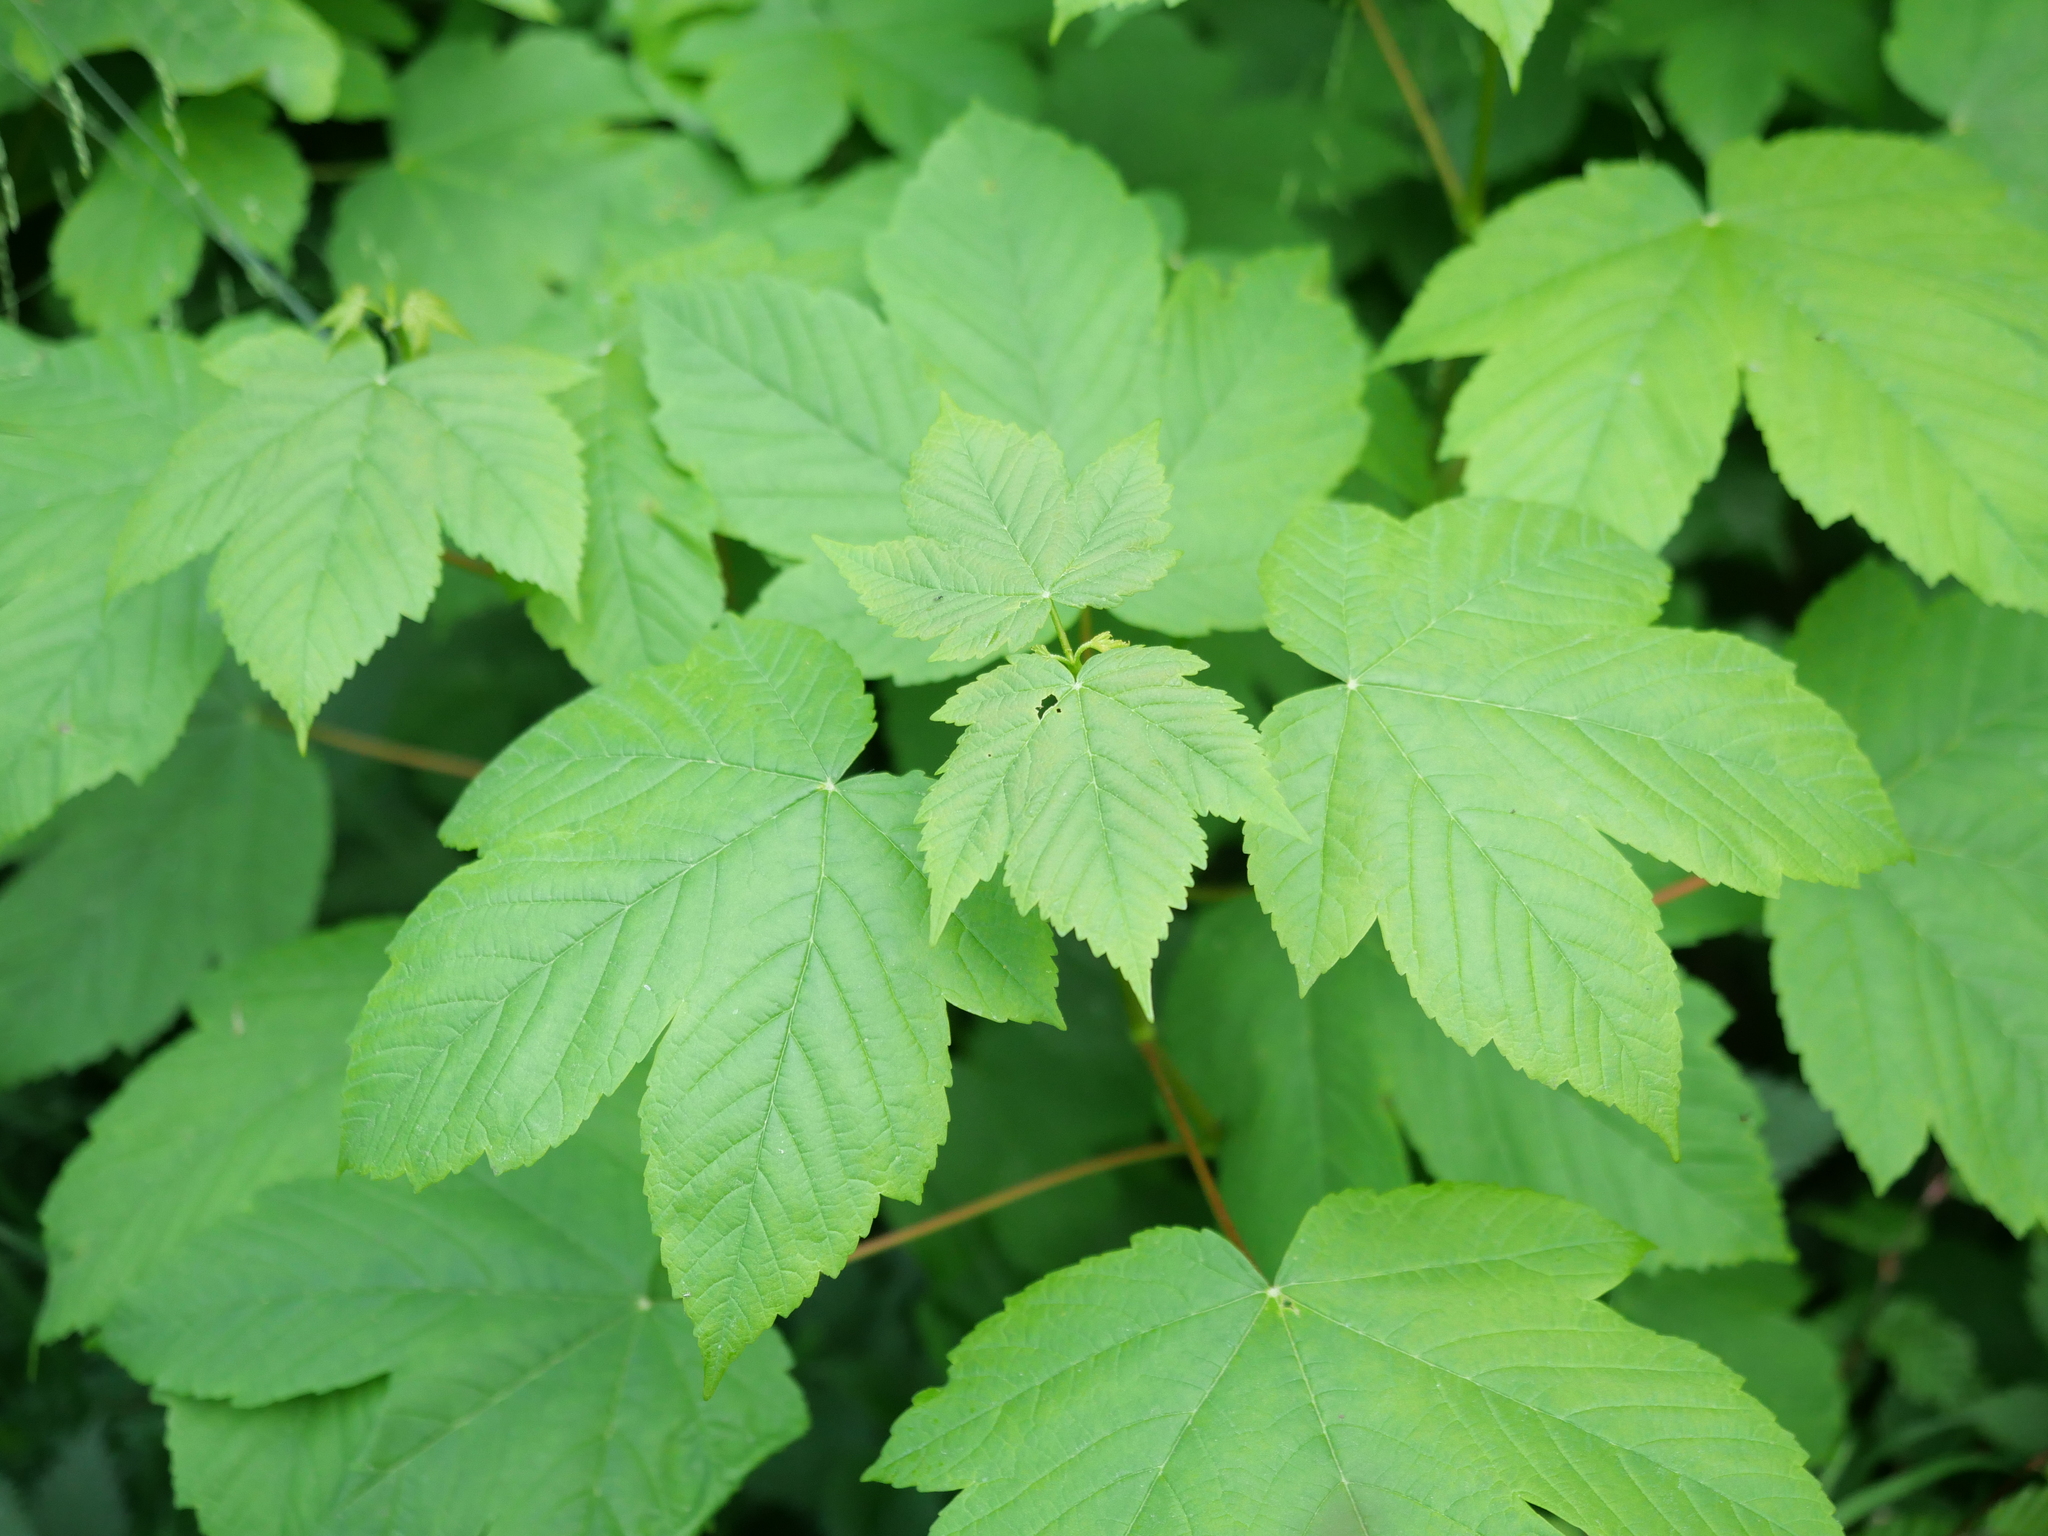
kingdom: Plantae
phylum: Tracheophyta
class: Magnoliopsida
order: Sapindales
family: Sapindaceae
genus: Acer
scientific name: Acer pseudoplatanus
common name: Sycamore
